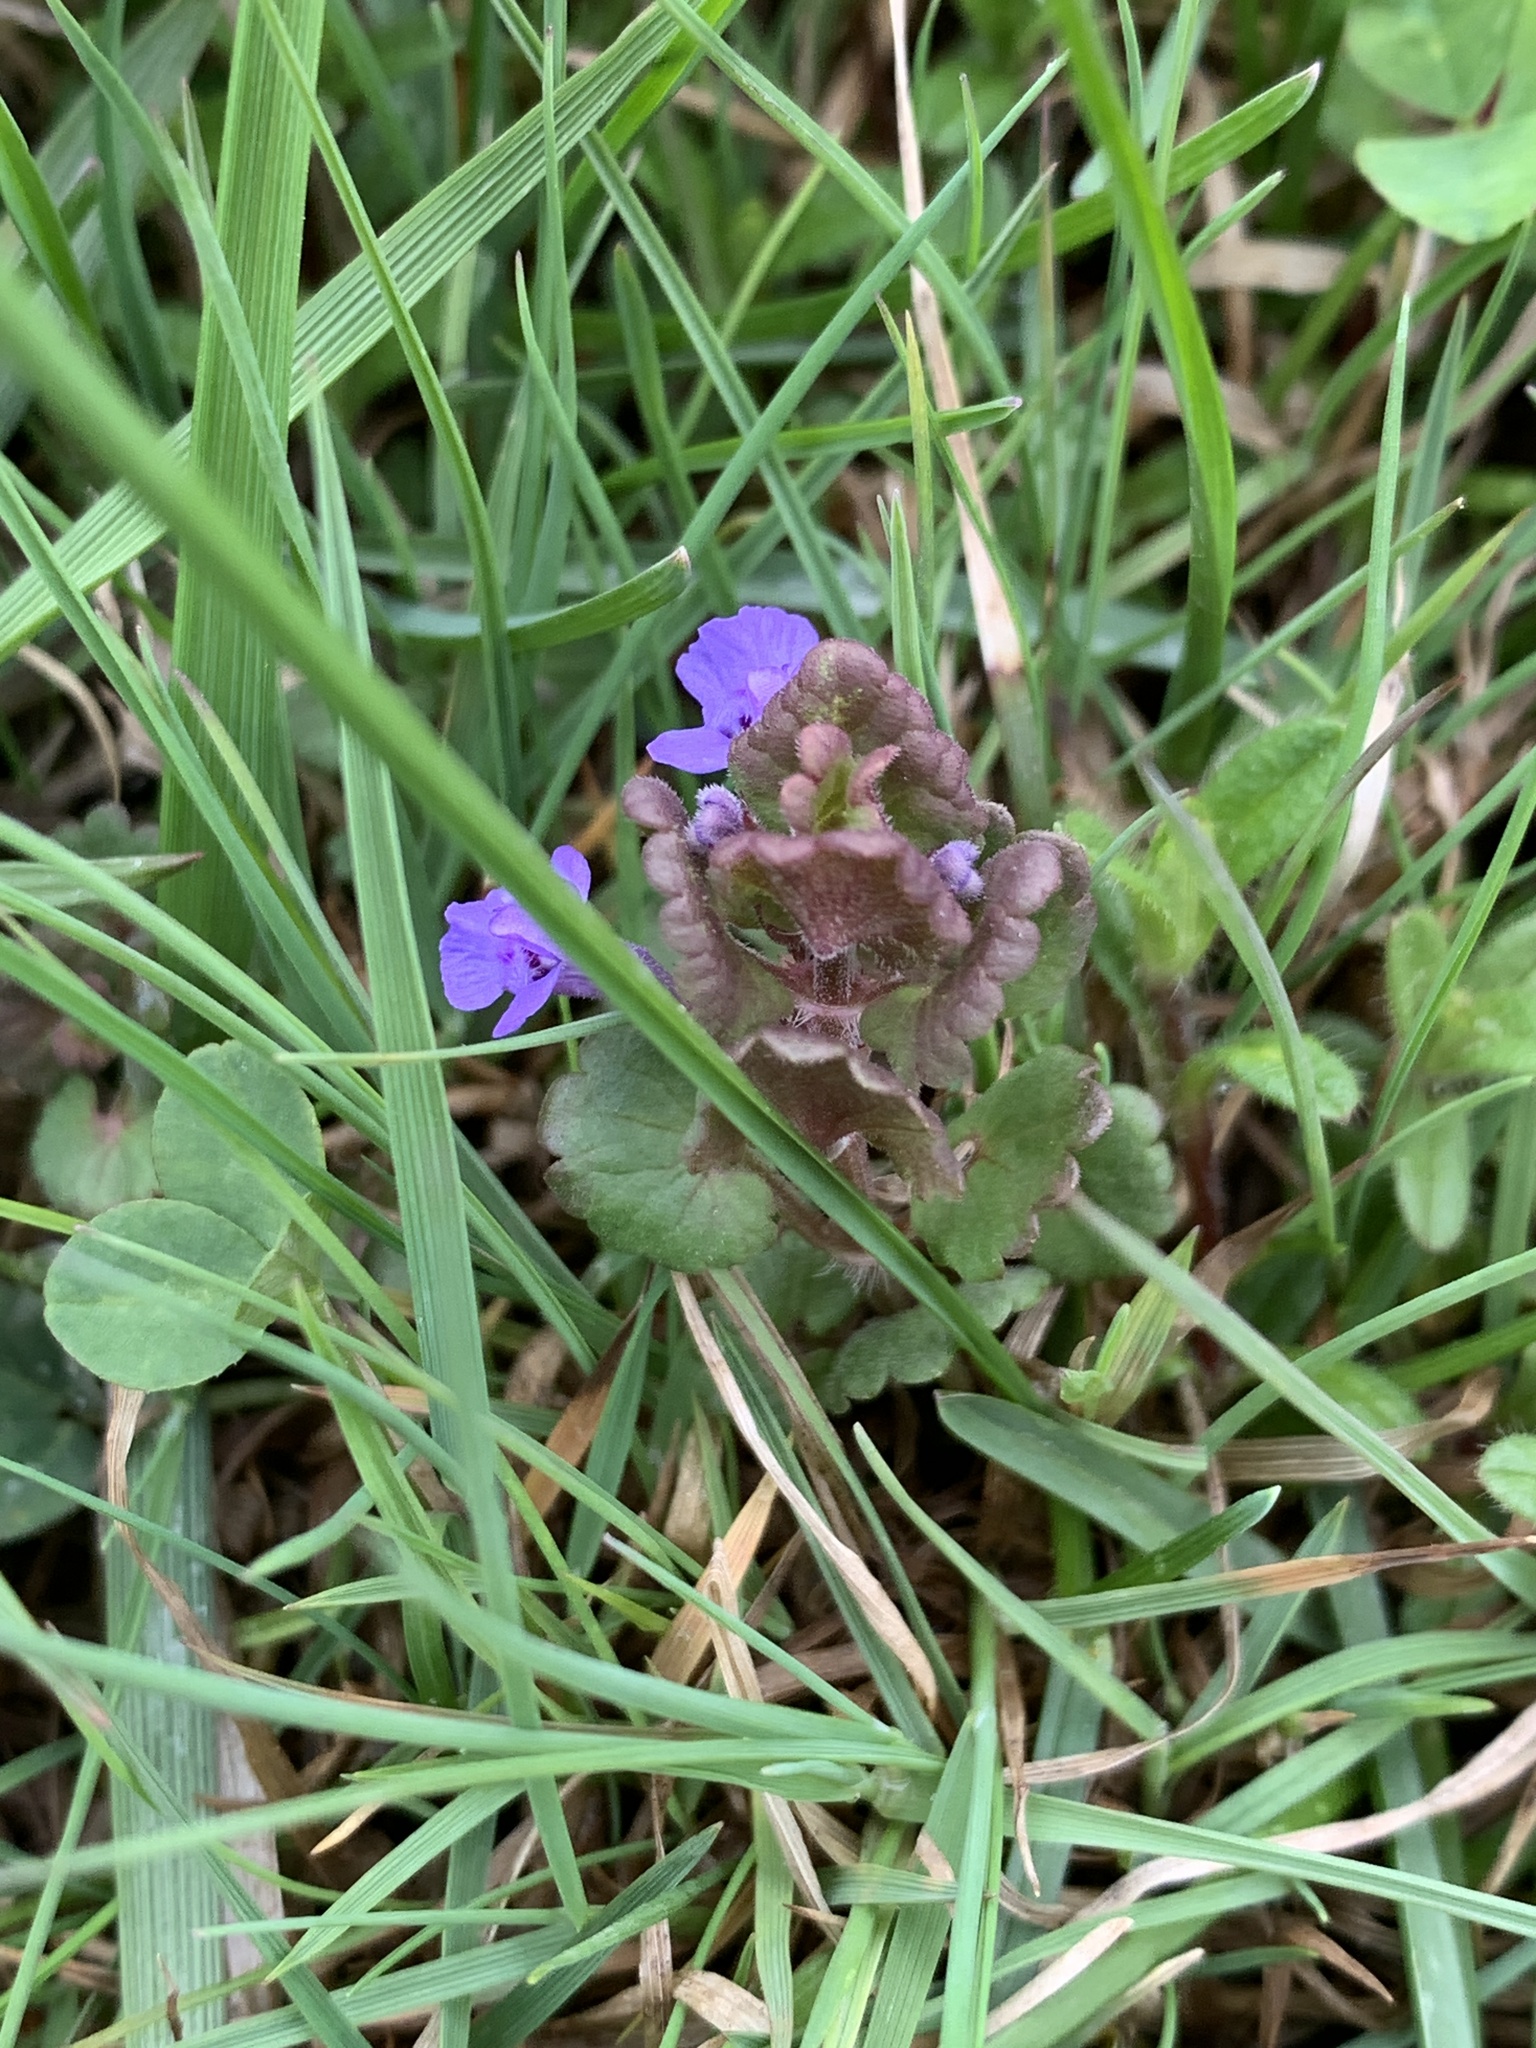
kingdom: Plantae
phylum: Tracheophyta
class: Magnoliopsida
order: Lamiales
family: Lamiaceae
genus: Glechoma
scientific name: Glechoma hederacea
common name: Ground ivy
